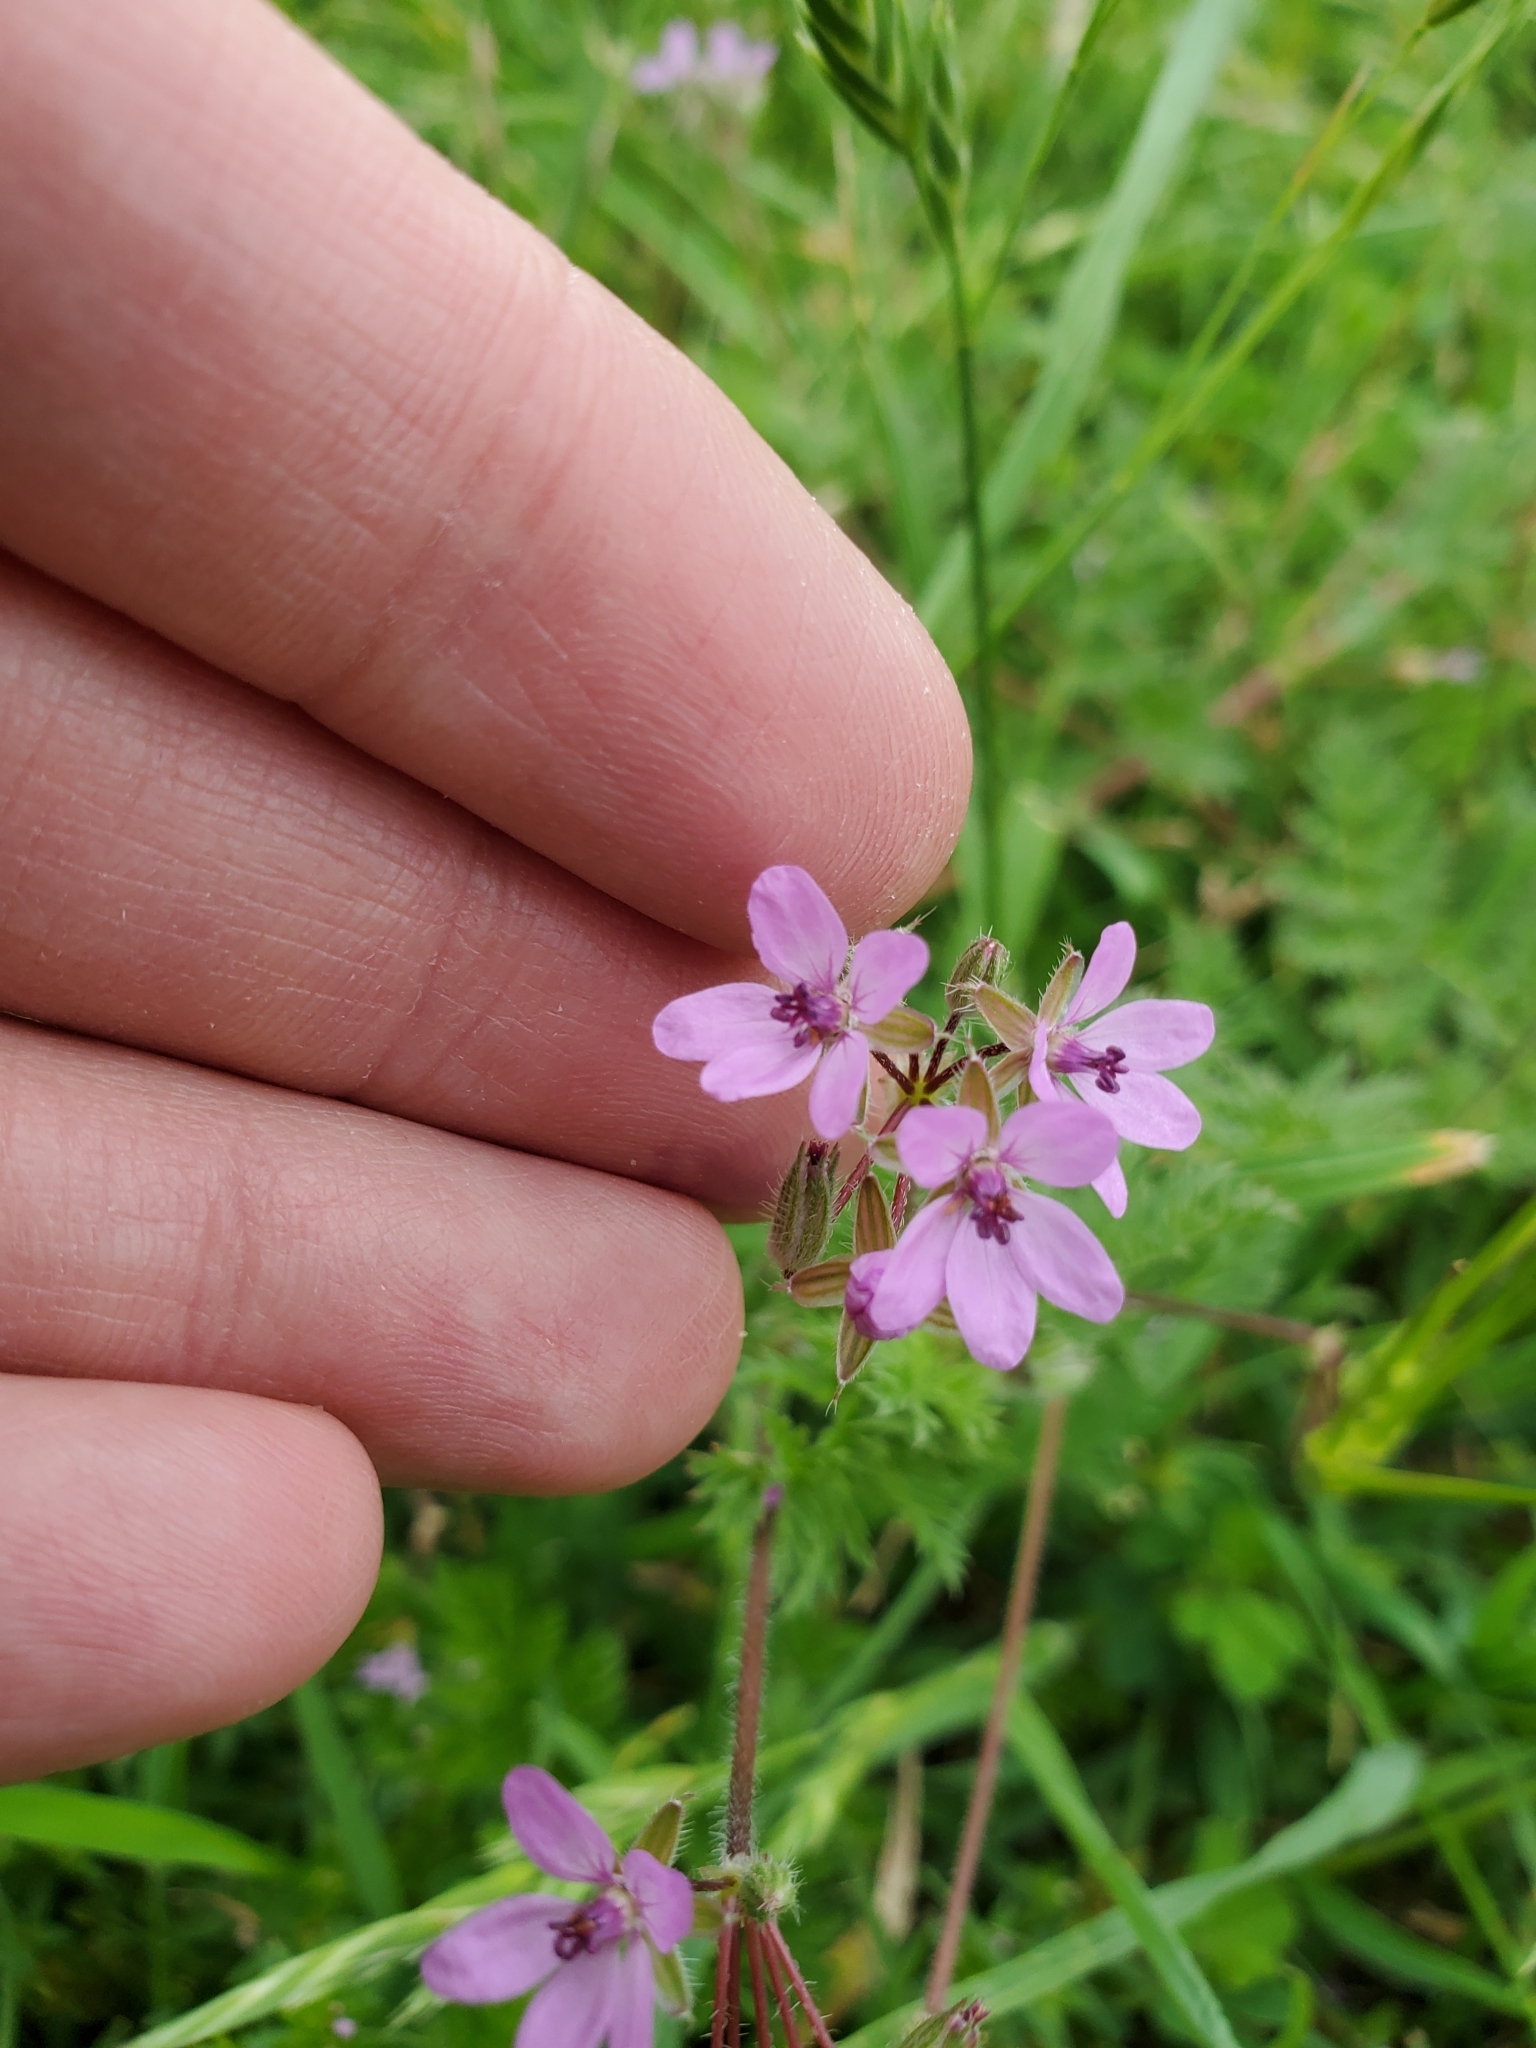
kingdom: Plantae
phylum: Tracheophyta
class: Magnoliopsida
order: Geraniales
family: Geraniaceae
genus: Erodium
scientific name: Erodium cicutarium
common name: Common stork's-bill
